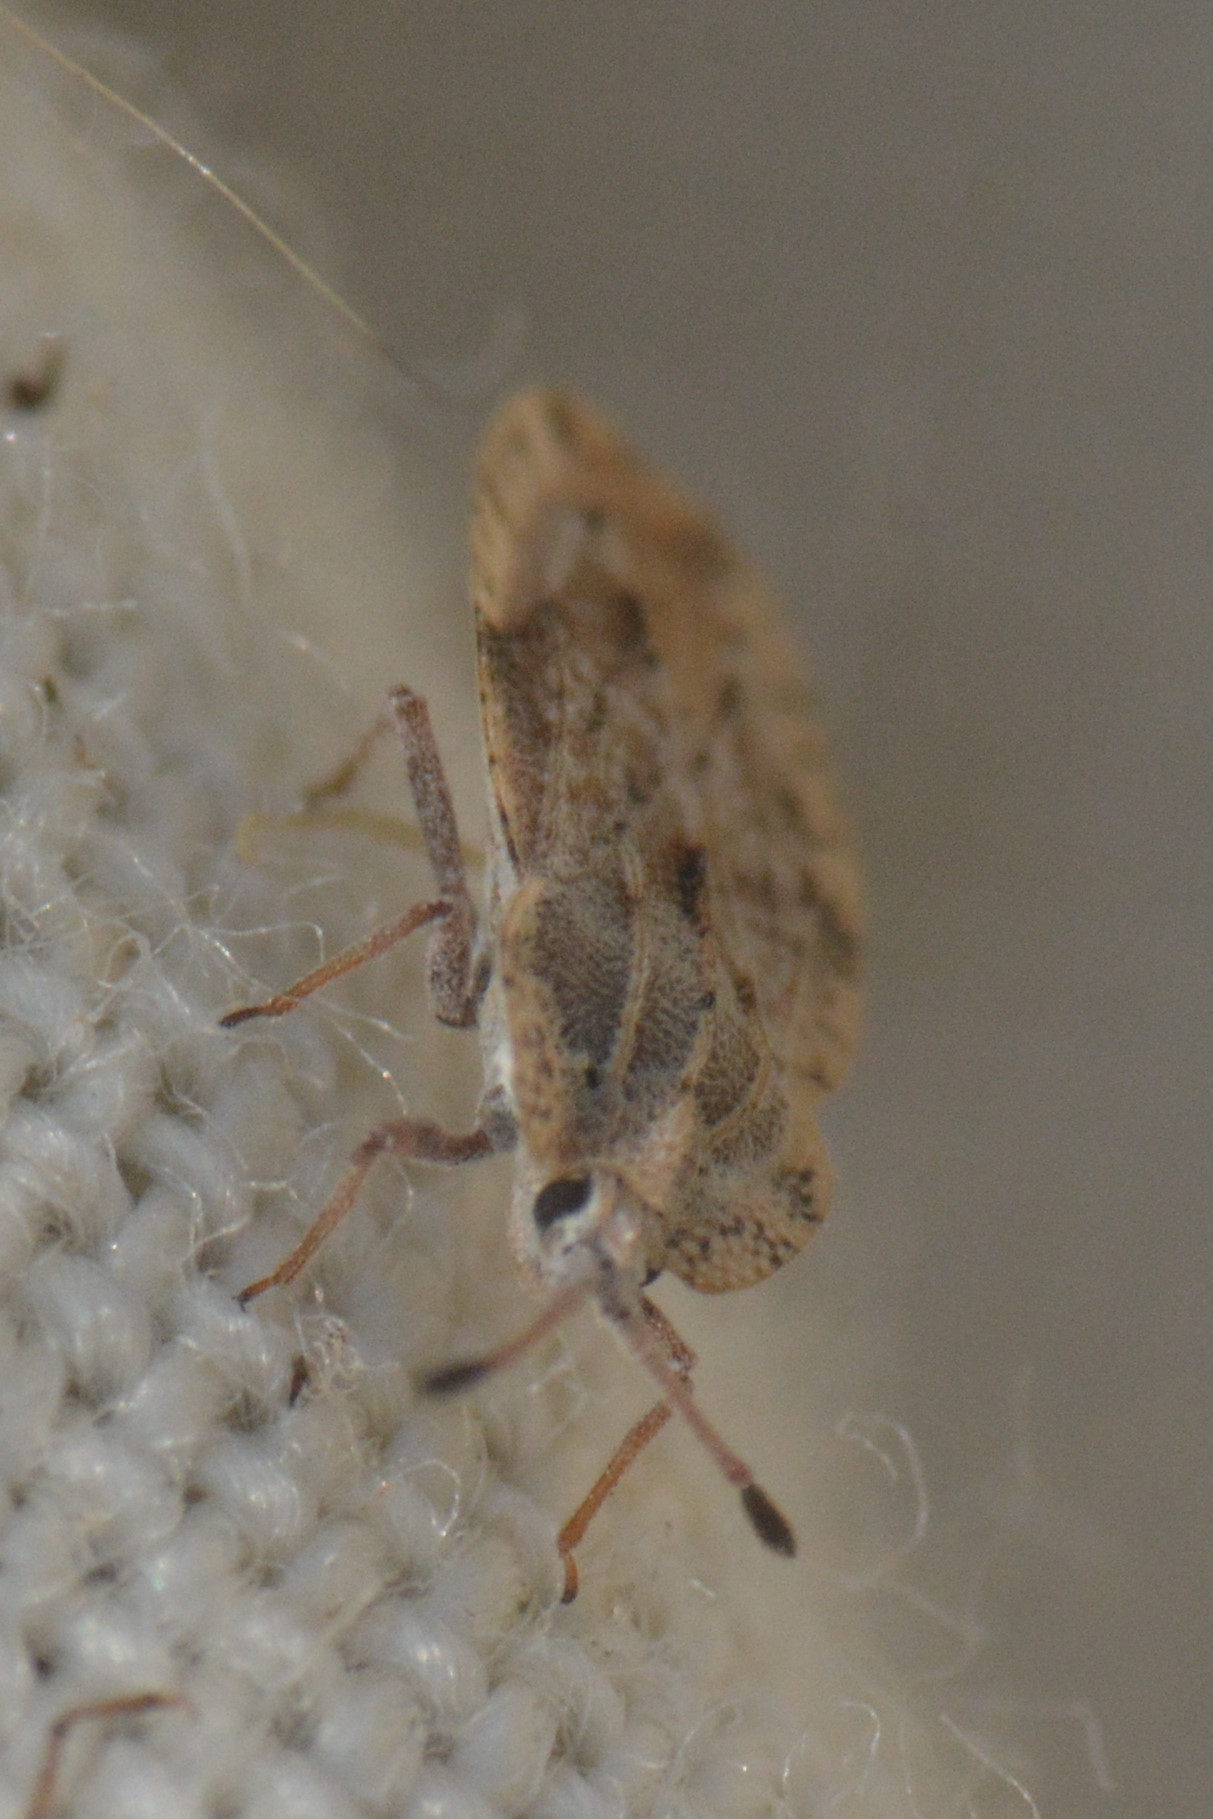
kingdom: Animalia
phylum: Arthropoda
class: Insecta
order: Hemiptera
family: Tingidae
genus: Tingis
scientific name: Tingis ampliata
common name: Creeping thistle lacebug
